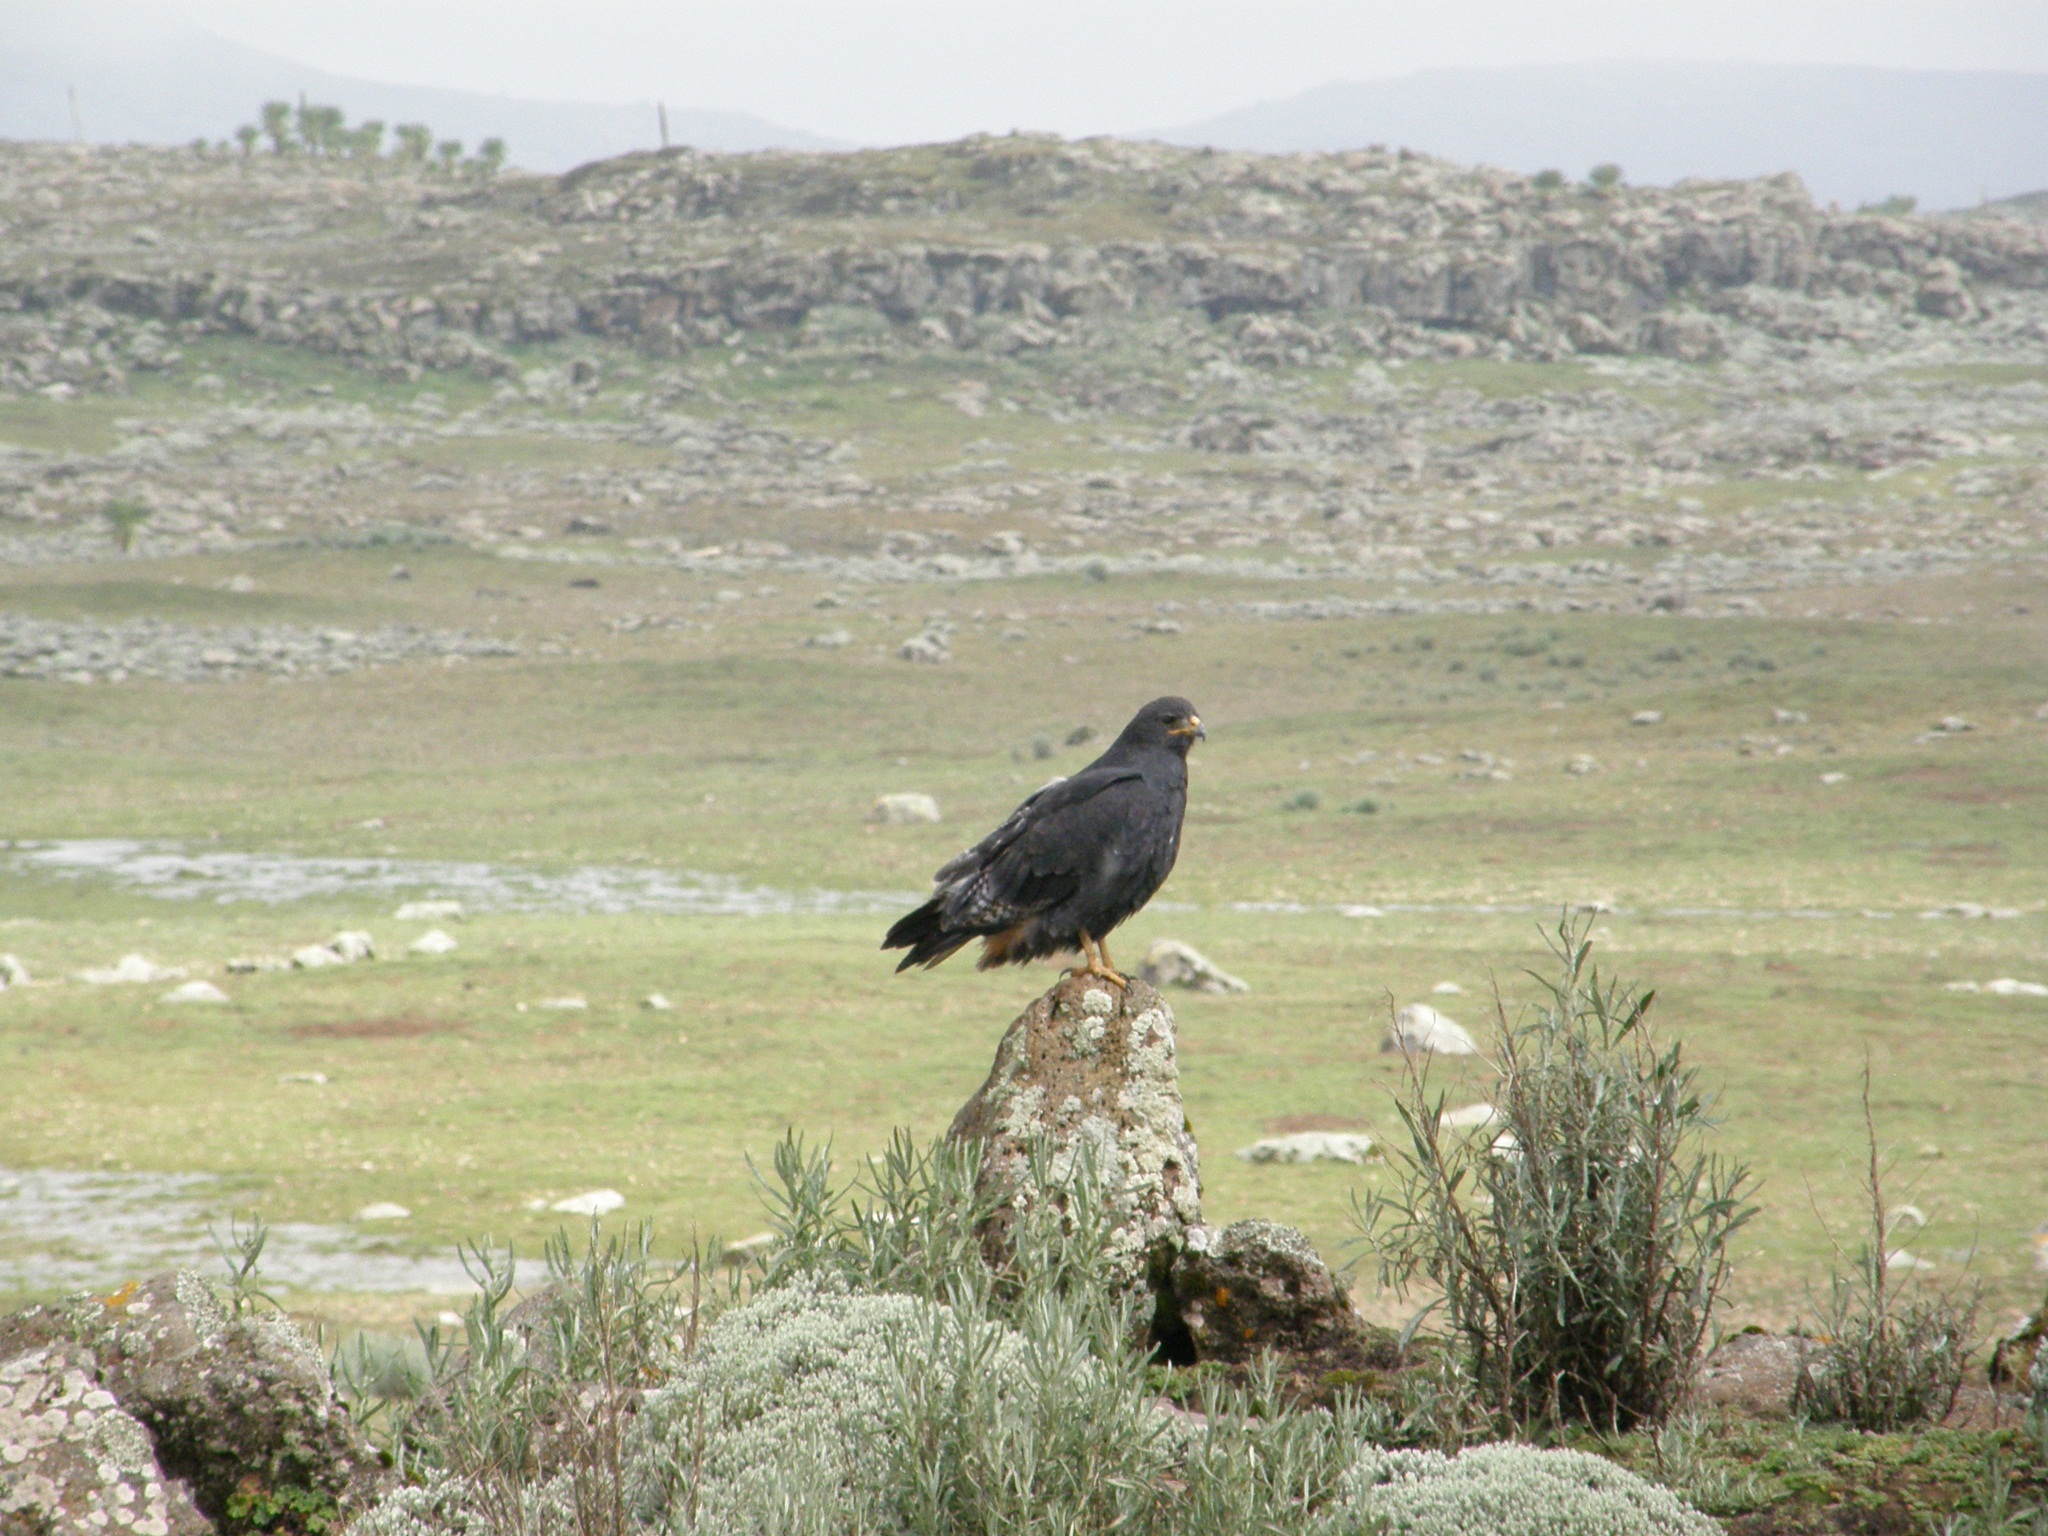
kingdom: Animalia
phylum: Chordata
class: Aves
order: Accipitriformes
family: Accipitridae
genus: Buteo
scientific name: Buteo augur
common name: Augur buzzard
